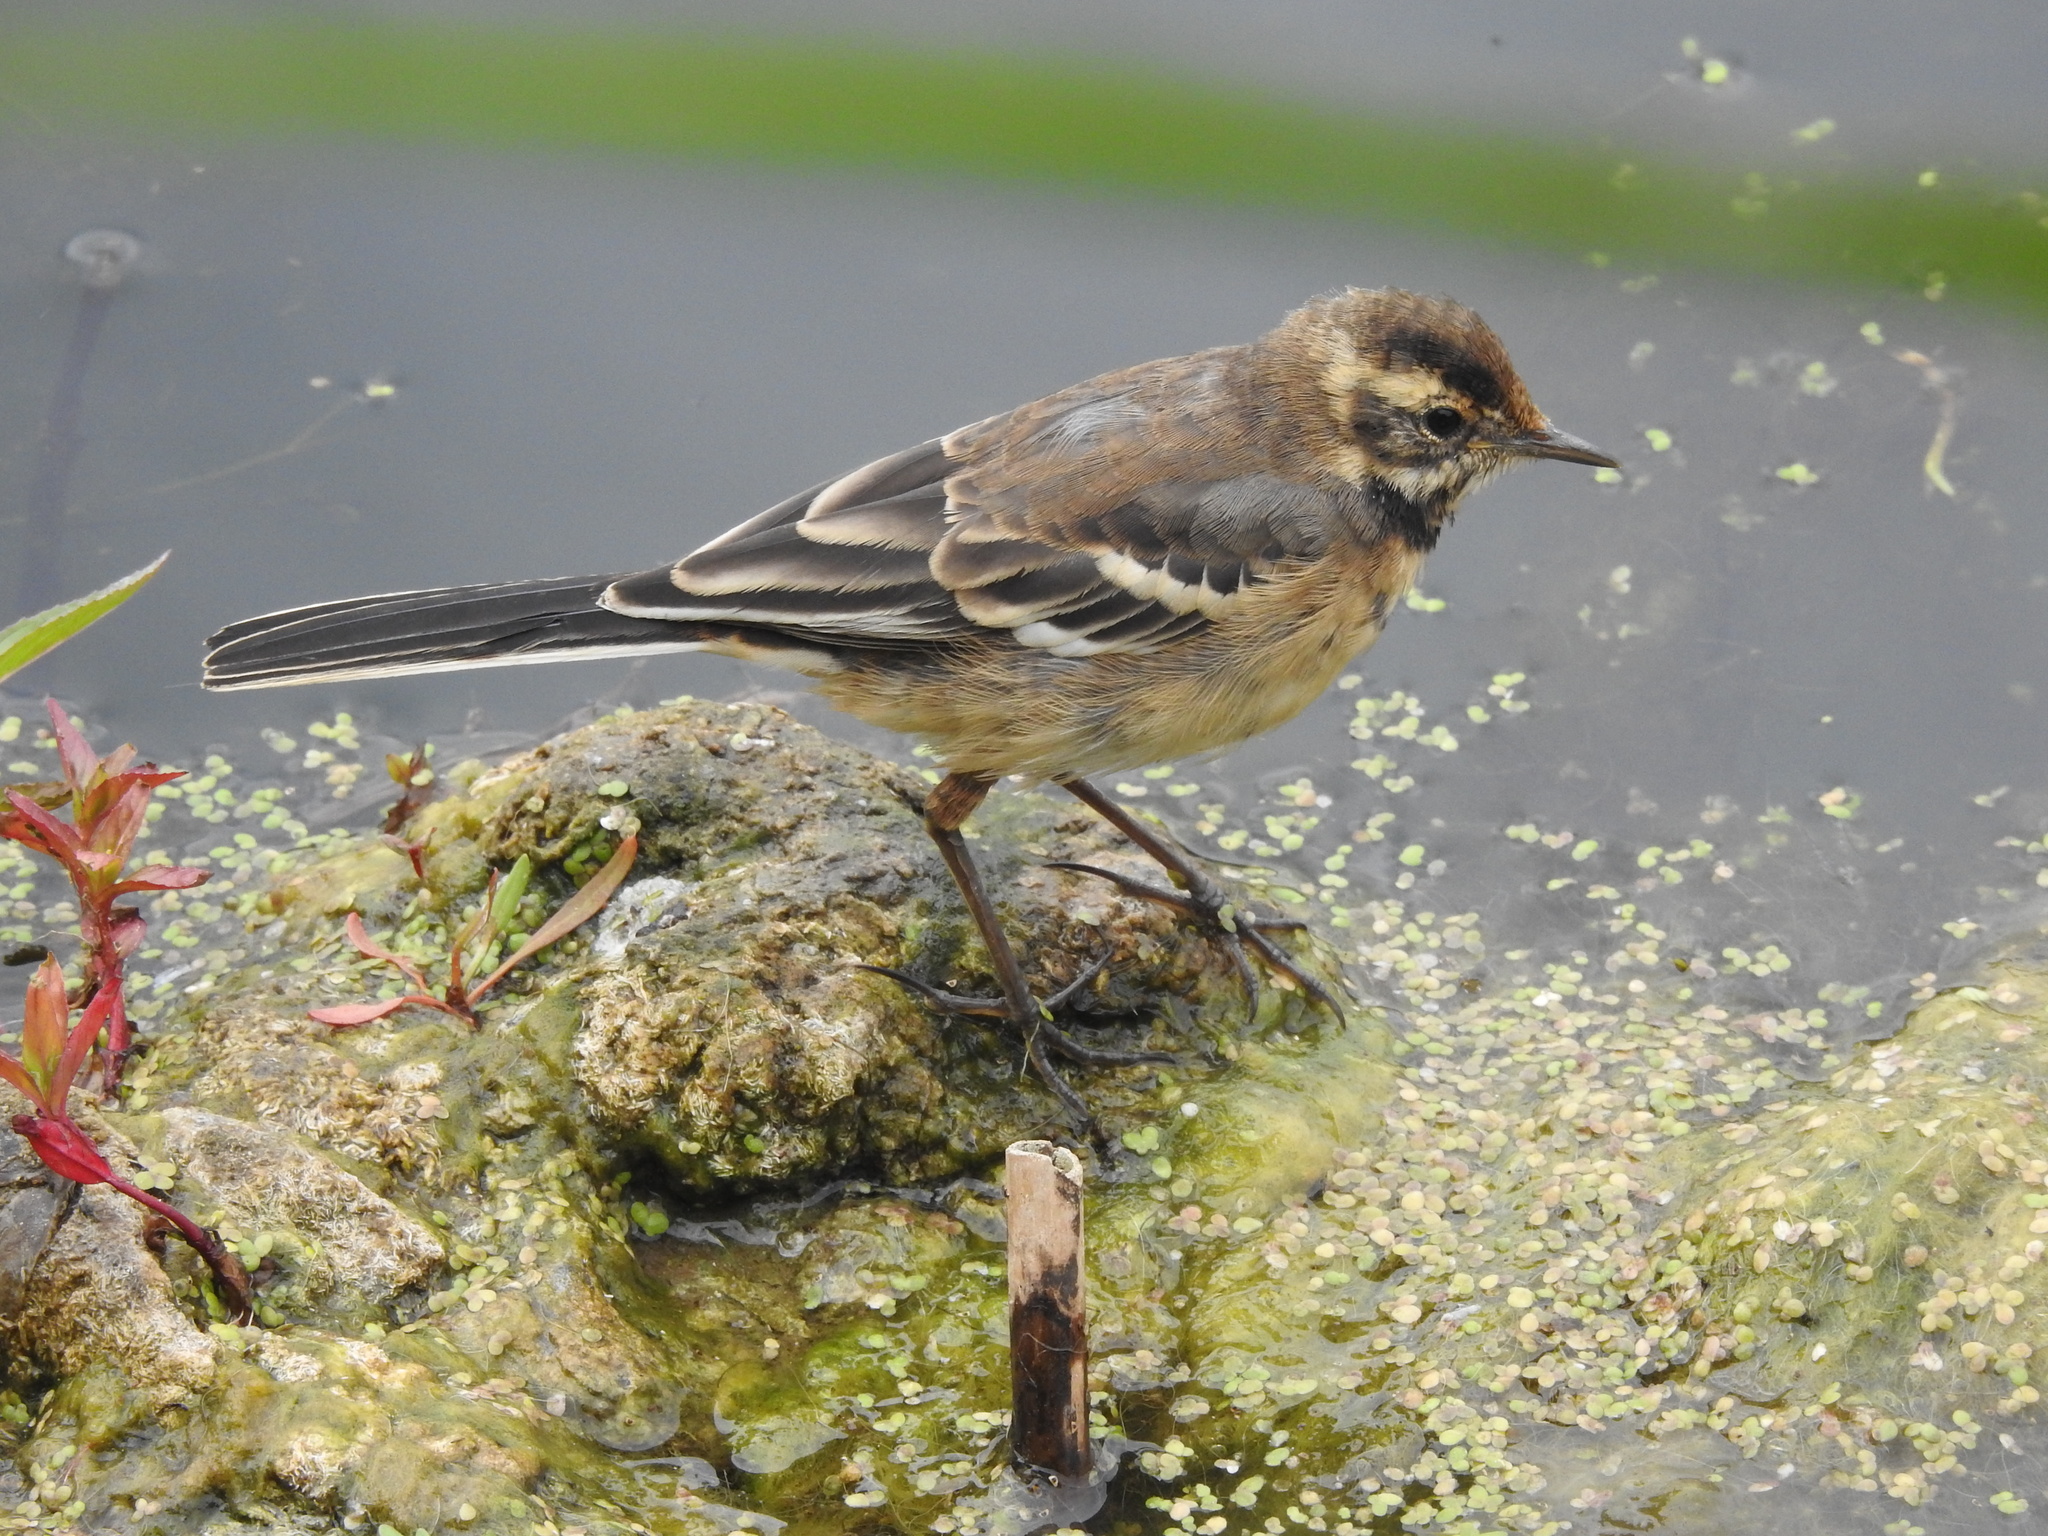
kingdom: Animalia
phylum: Chordata
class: Aves
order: Passeriformes
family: Motacillidae
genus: Motacilla
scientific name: Motacilla flava
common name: Western yellow wagtail
